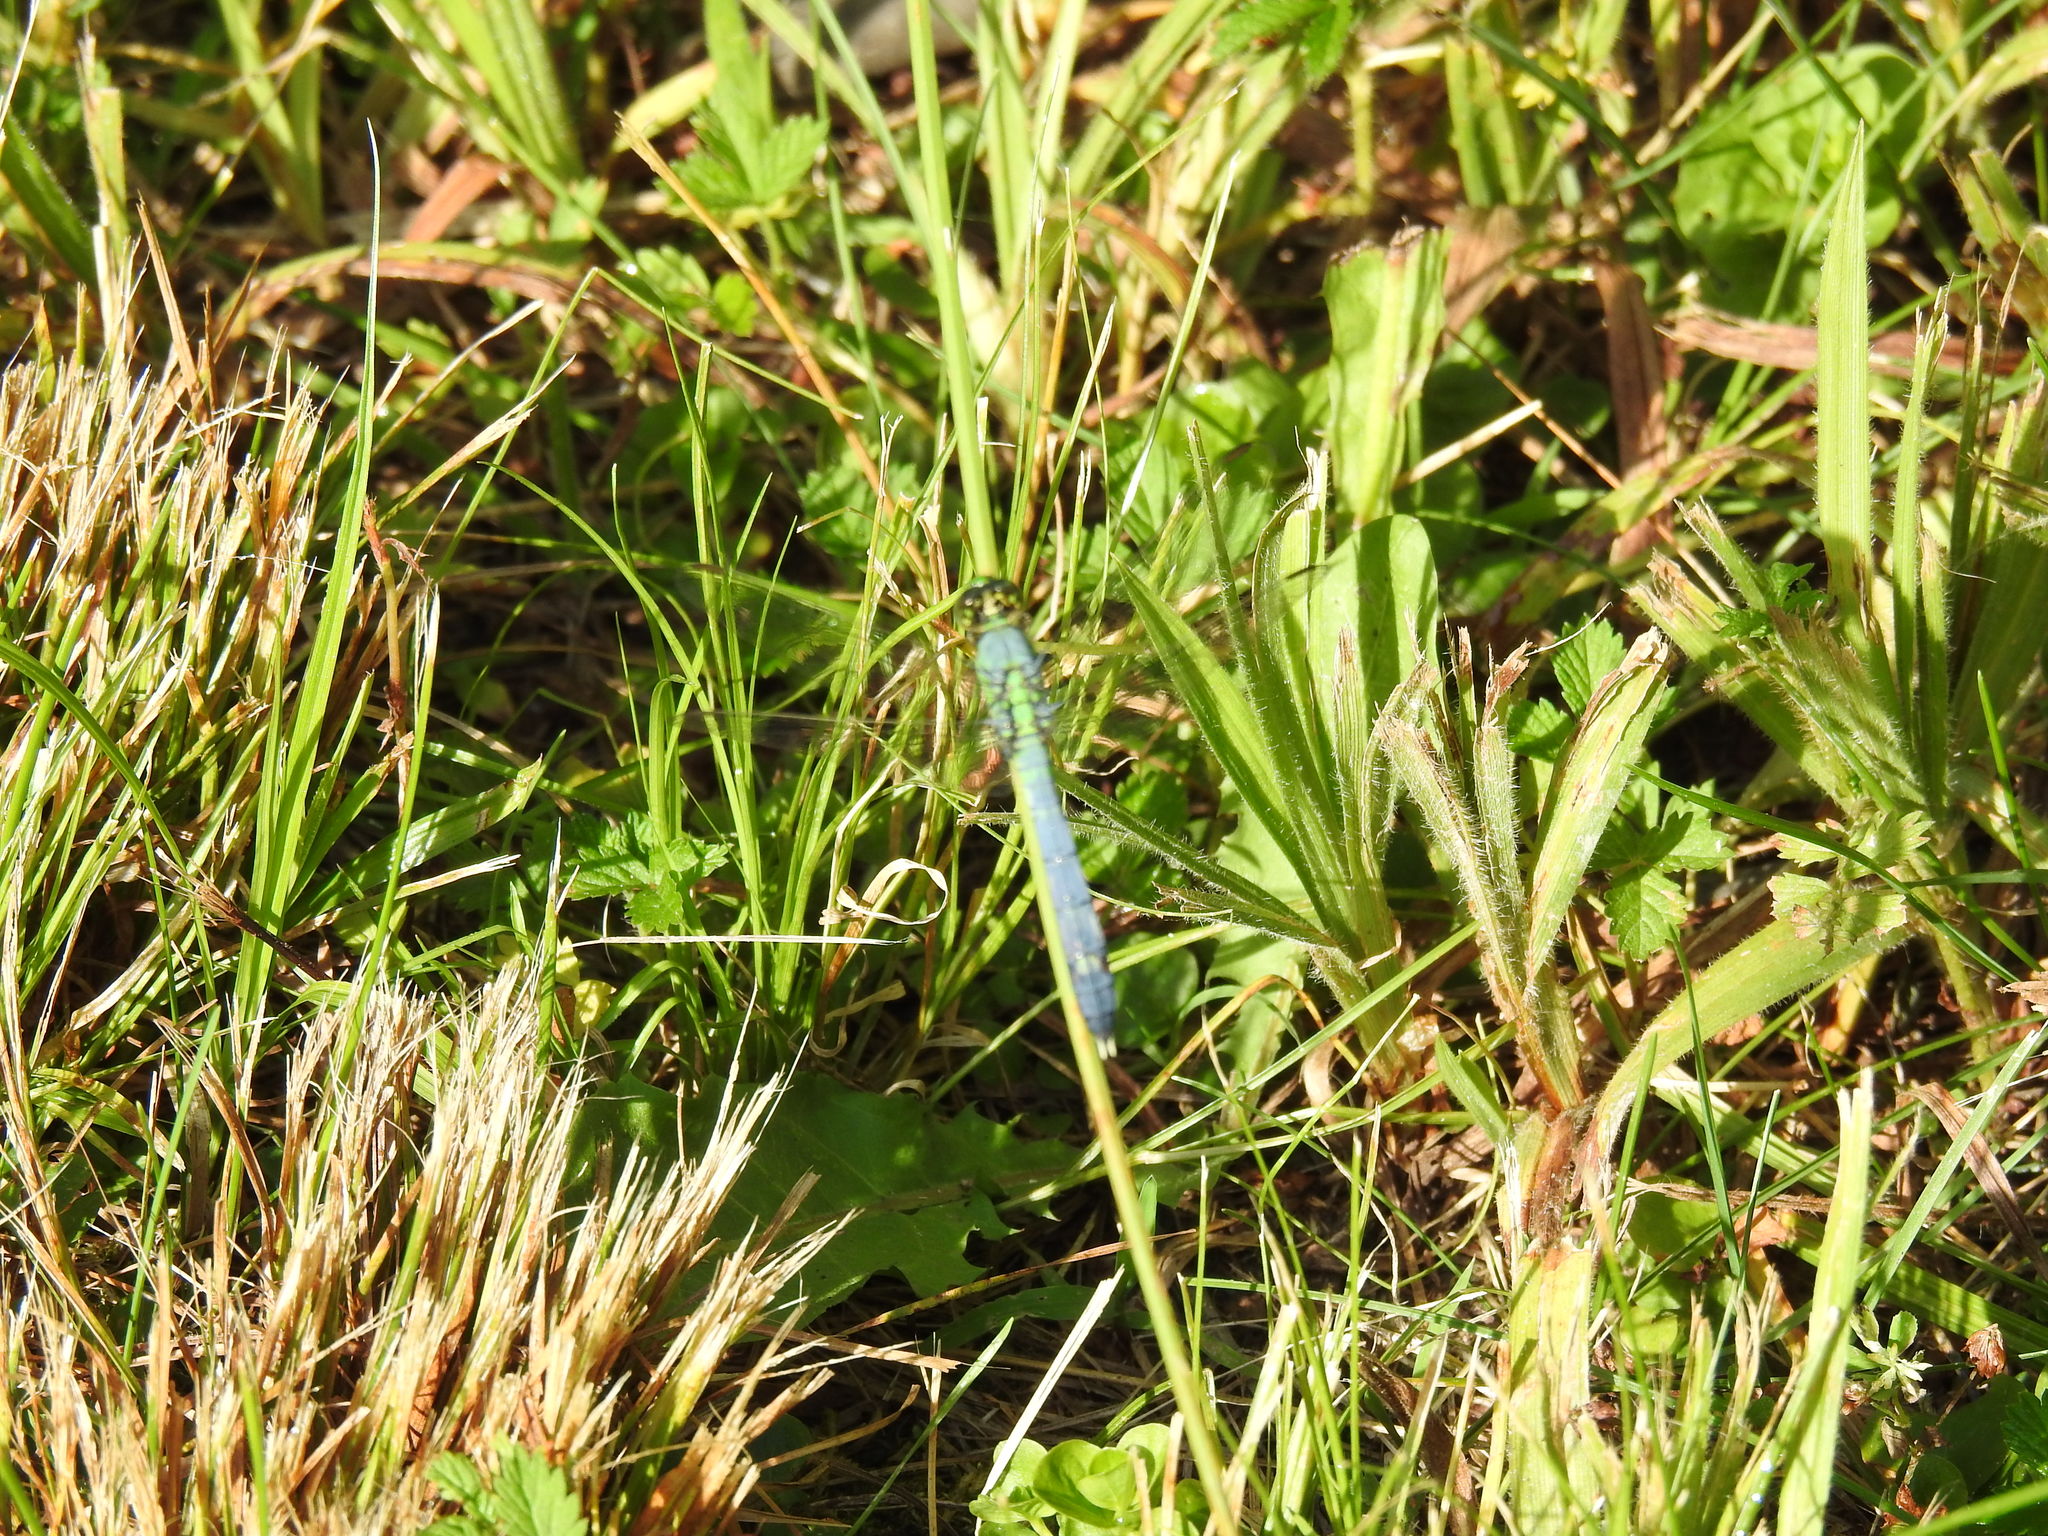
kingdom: Animalia
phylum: Arthropoda
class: Insecta
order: Odonata
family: Libellulidae
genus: Erythemis
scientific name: Erythemis simplicicollis
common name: Eastern pondhawk
